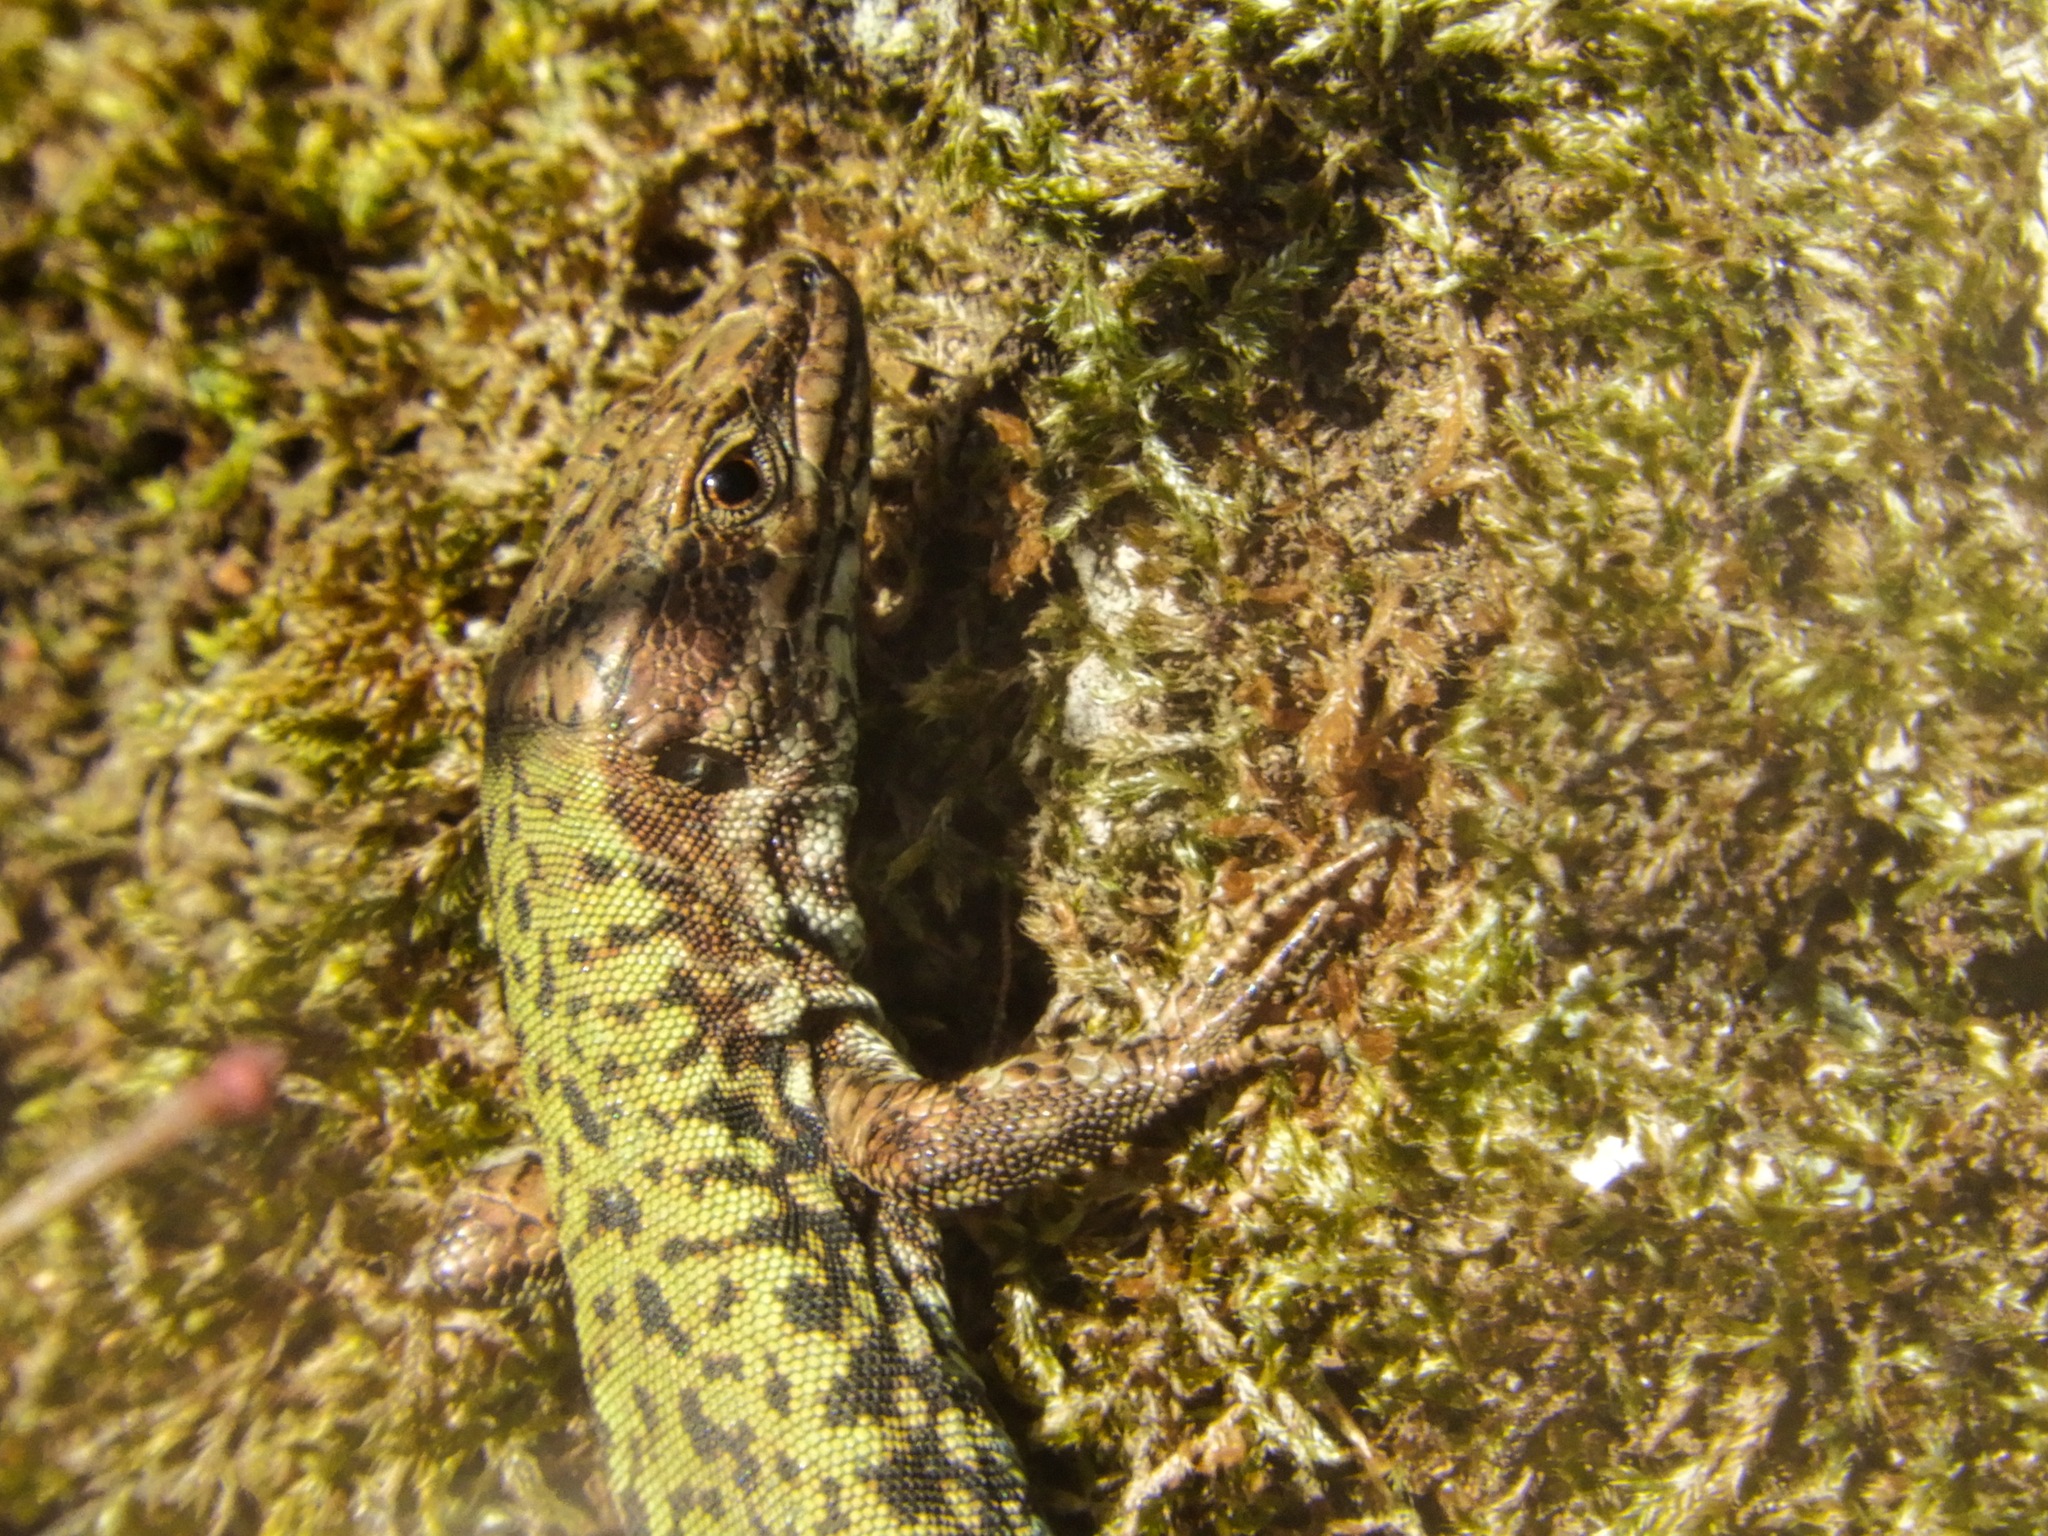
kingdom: Animalia
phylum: Chordata
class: Squamata
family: Lacertidae
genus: Podarcis
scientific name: Podarcis muralis
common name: Common wall lizard
